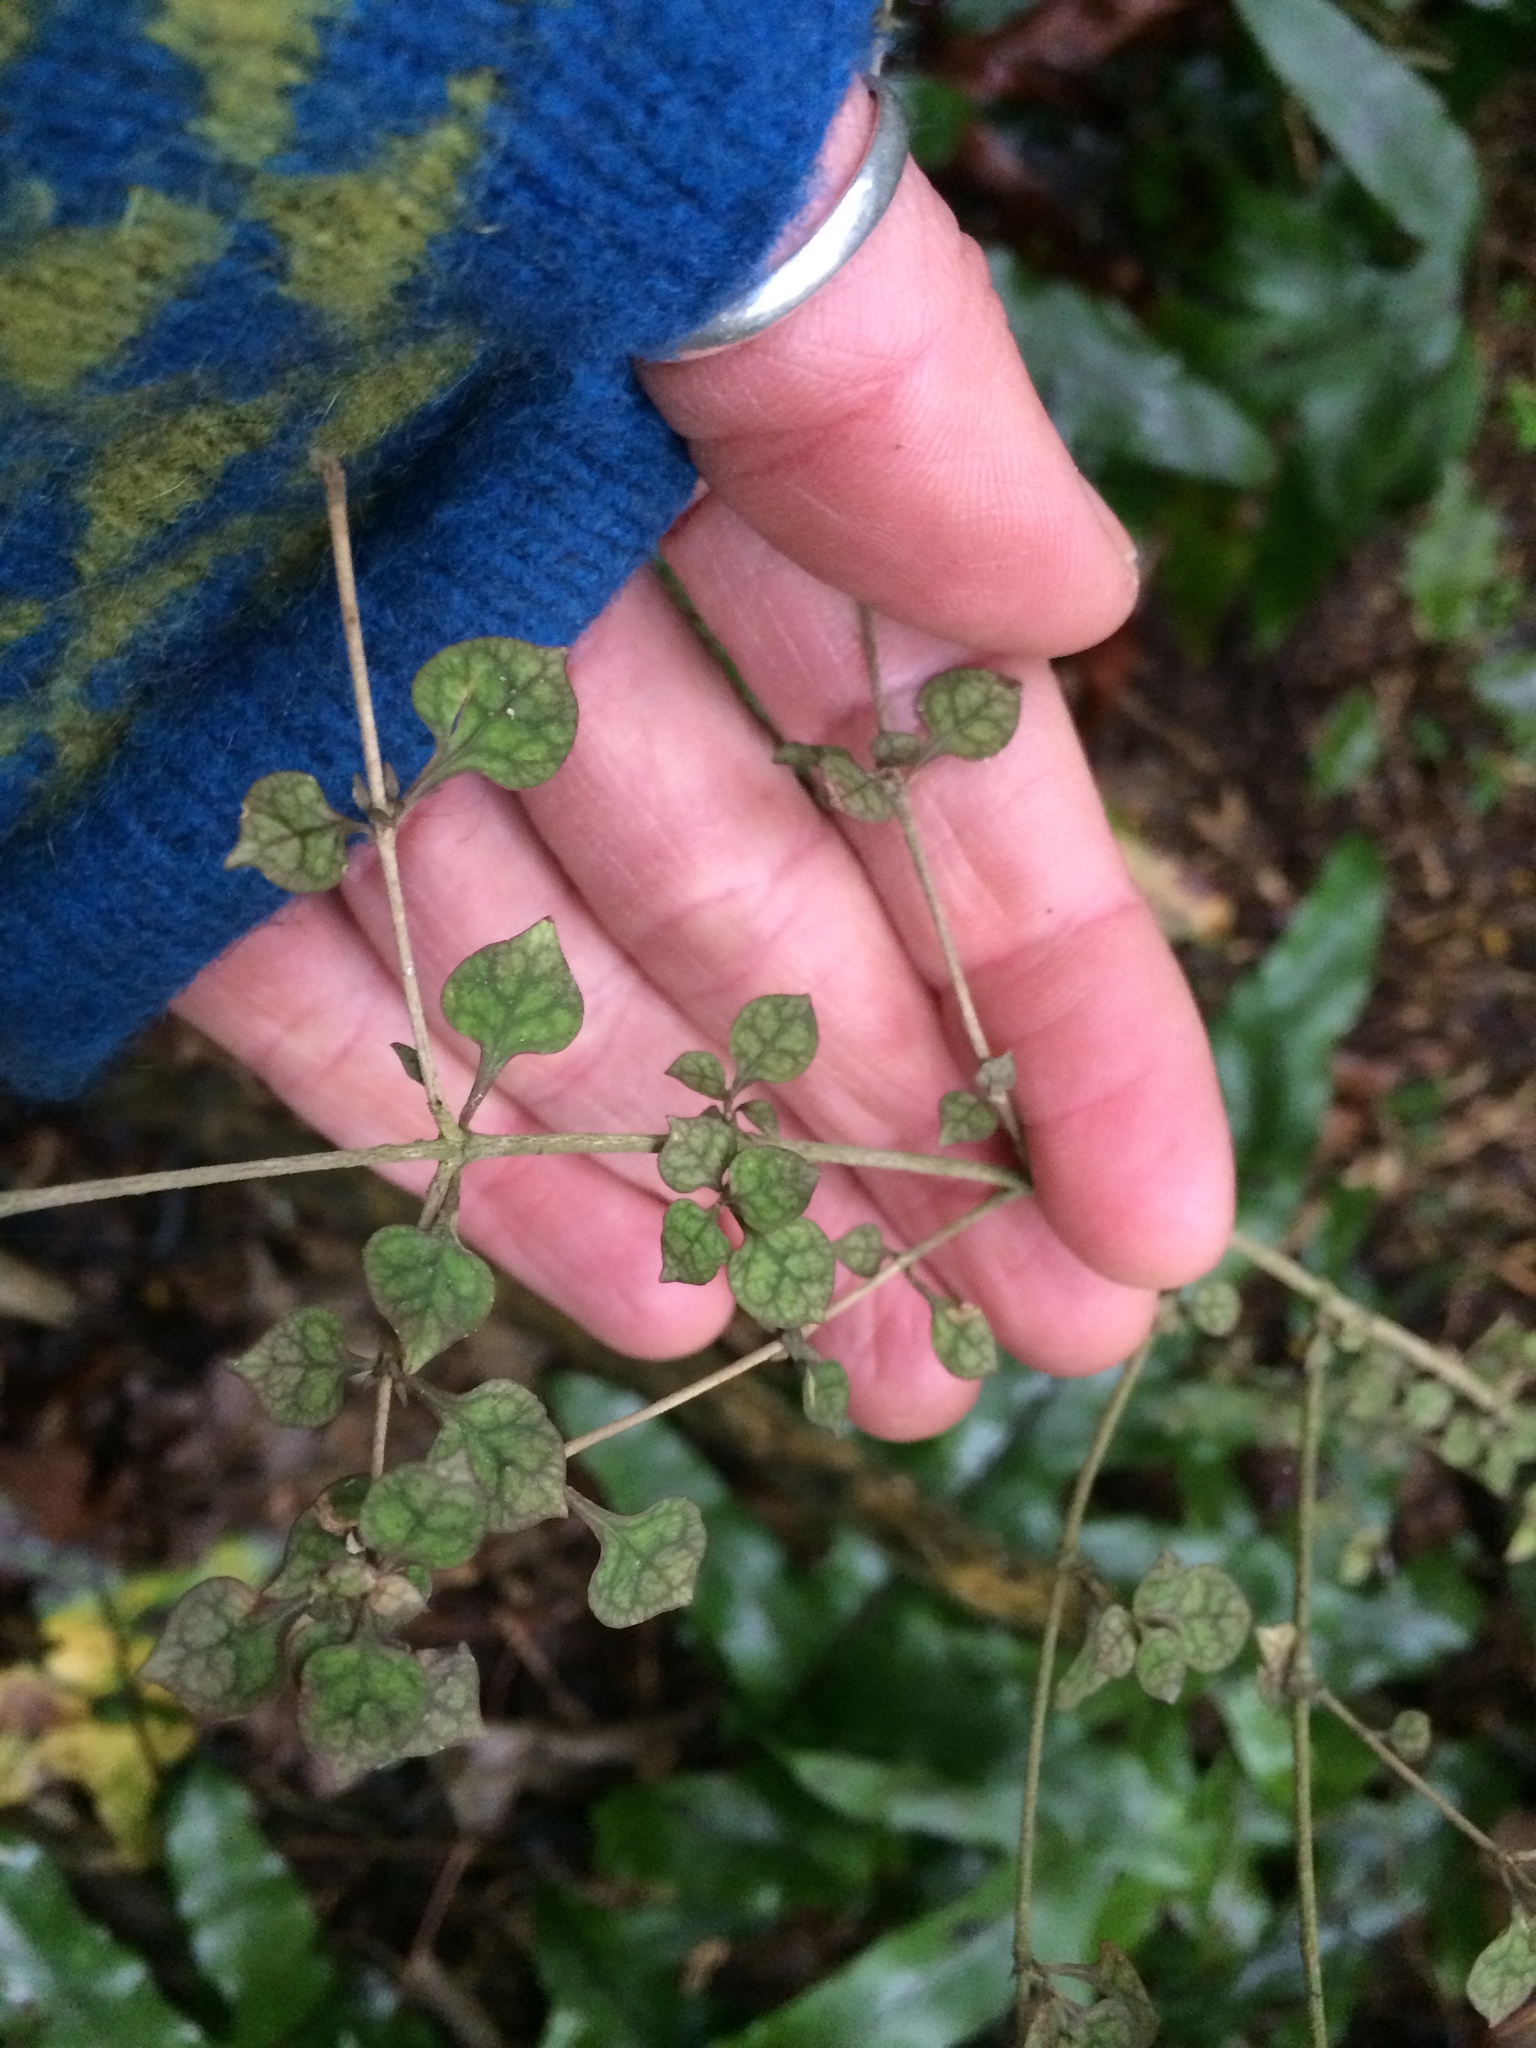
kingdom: Plantae
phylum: Tracheophyta
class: Magnoliopsida
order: Gentianales
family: Rubiaceae
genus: Coprosma
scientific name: Coprosma areolata
